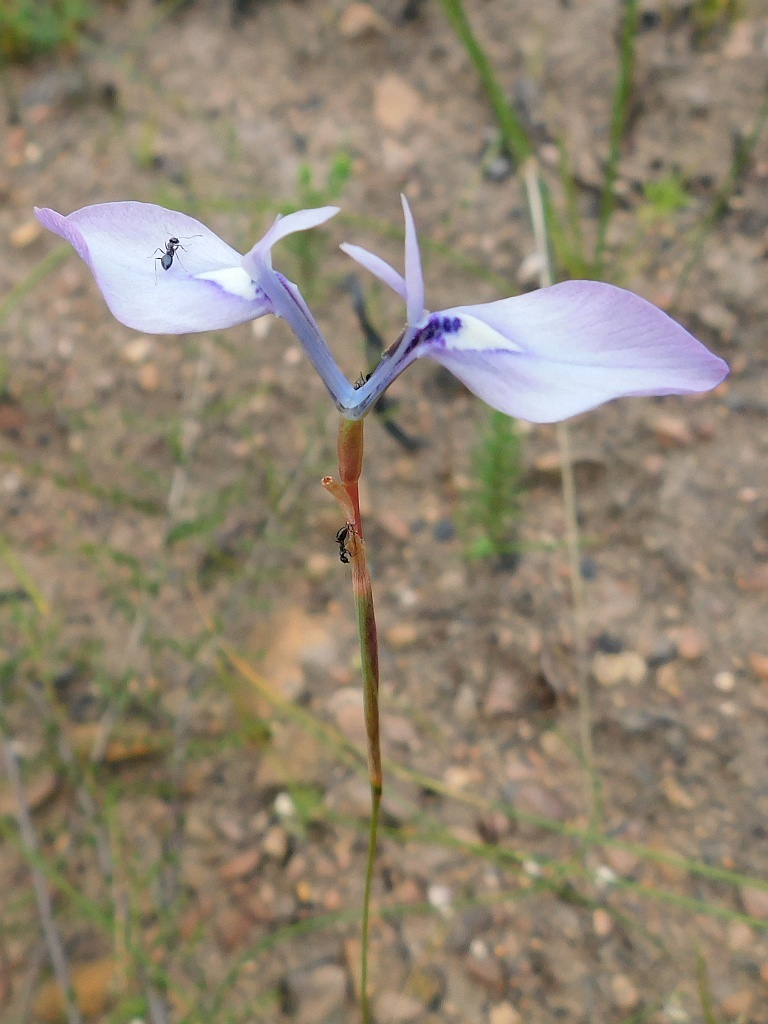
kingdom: Plantae
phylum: Tracheophyta
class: Liliopsida
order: Asparagales
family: Iridaceae
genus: Moraea
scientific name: Moraea tripetala
